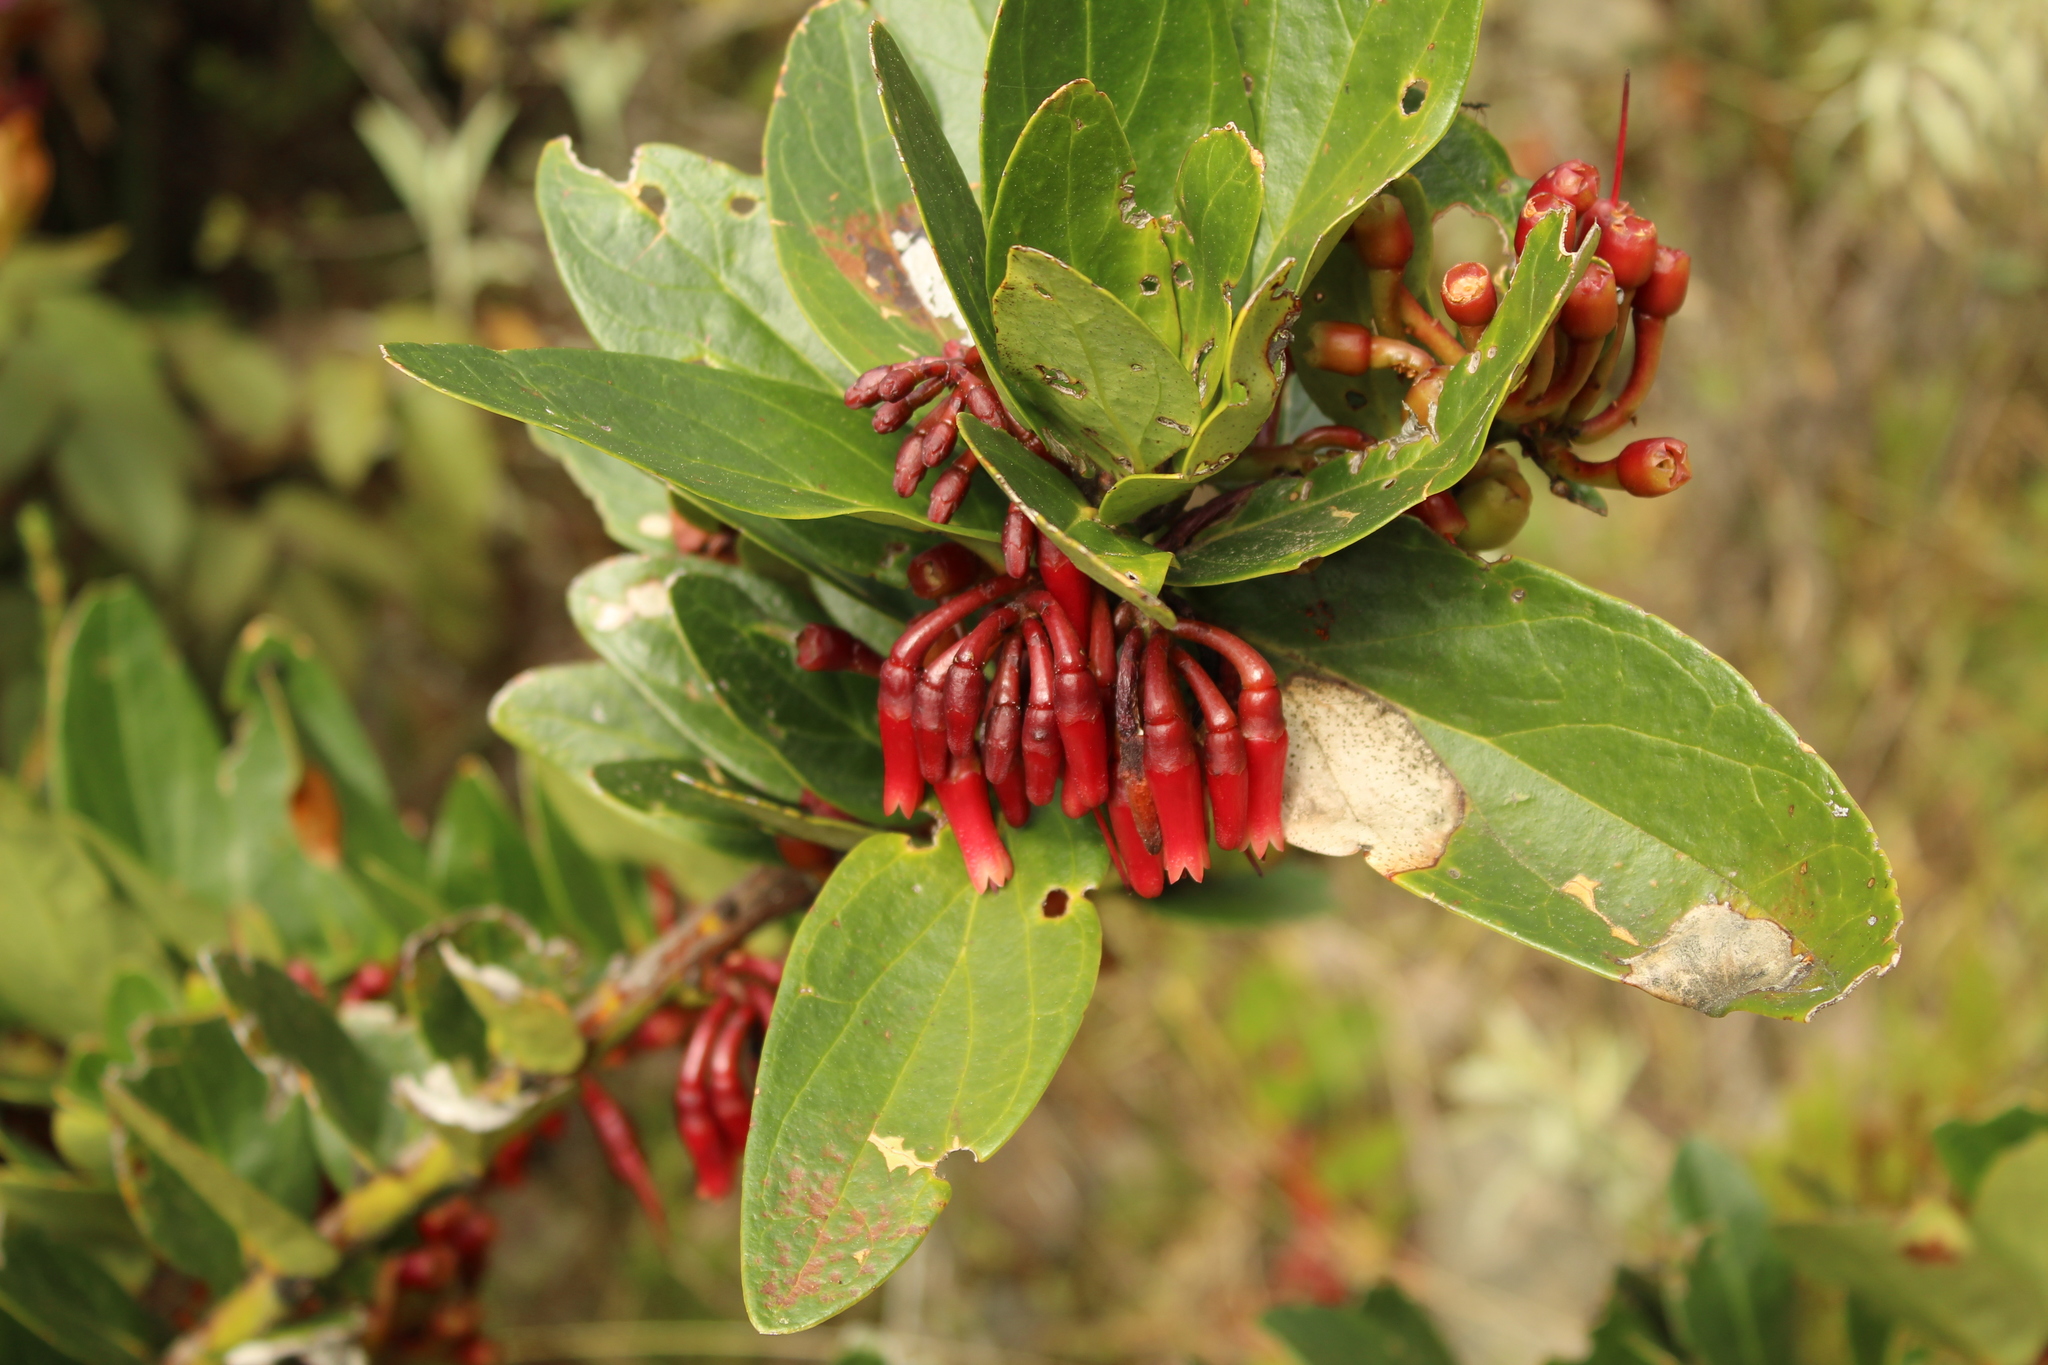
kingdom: Plantae
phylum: Tracheophyta
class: Magnoliopsida
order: Ericales
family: Ericaceae
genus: Macleania
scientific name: Macleania rupestris
